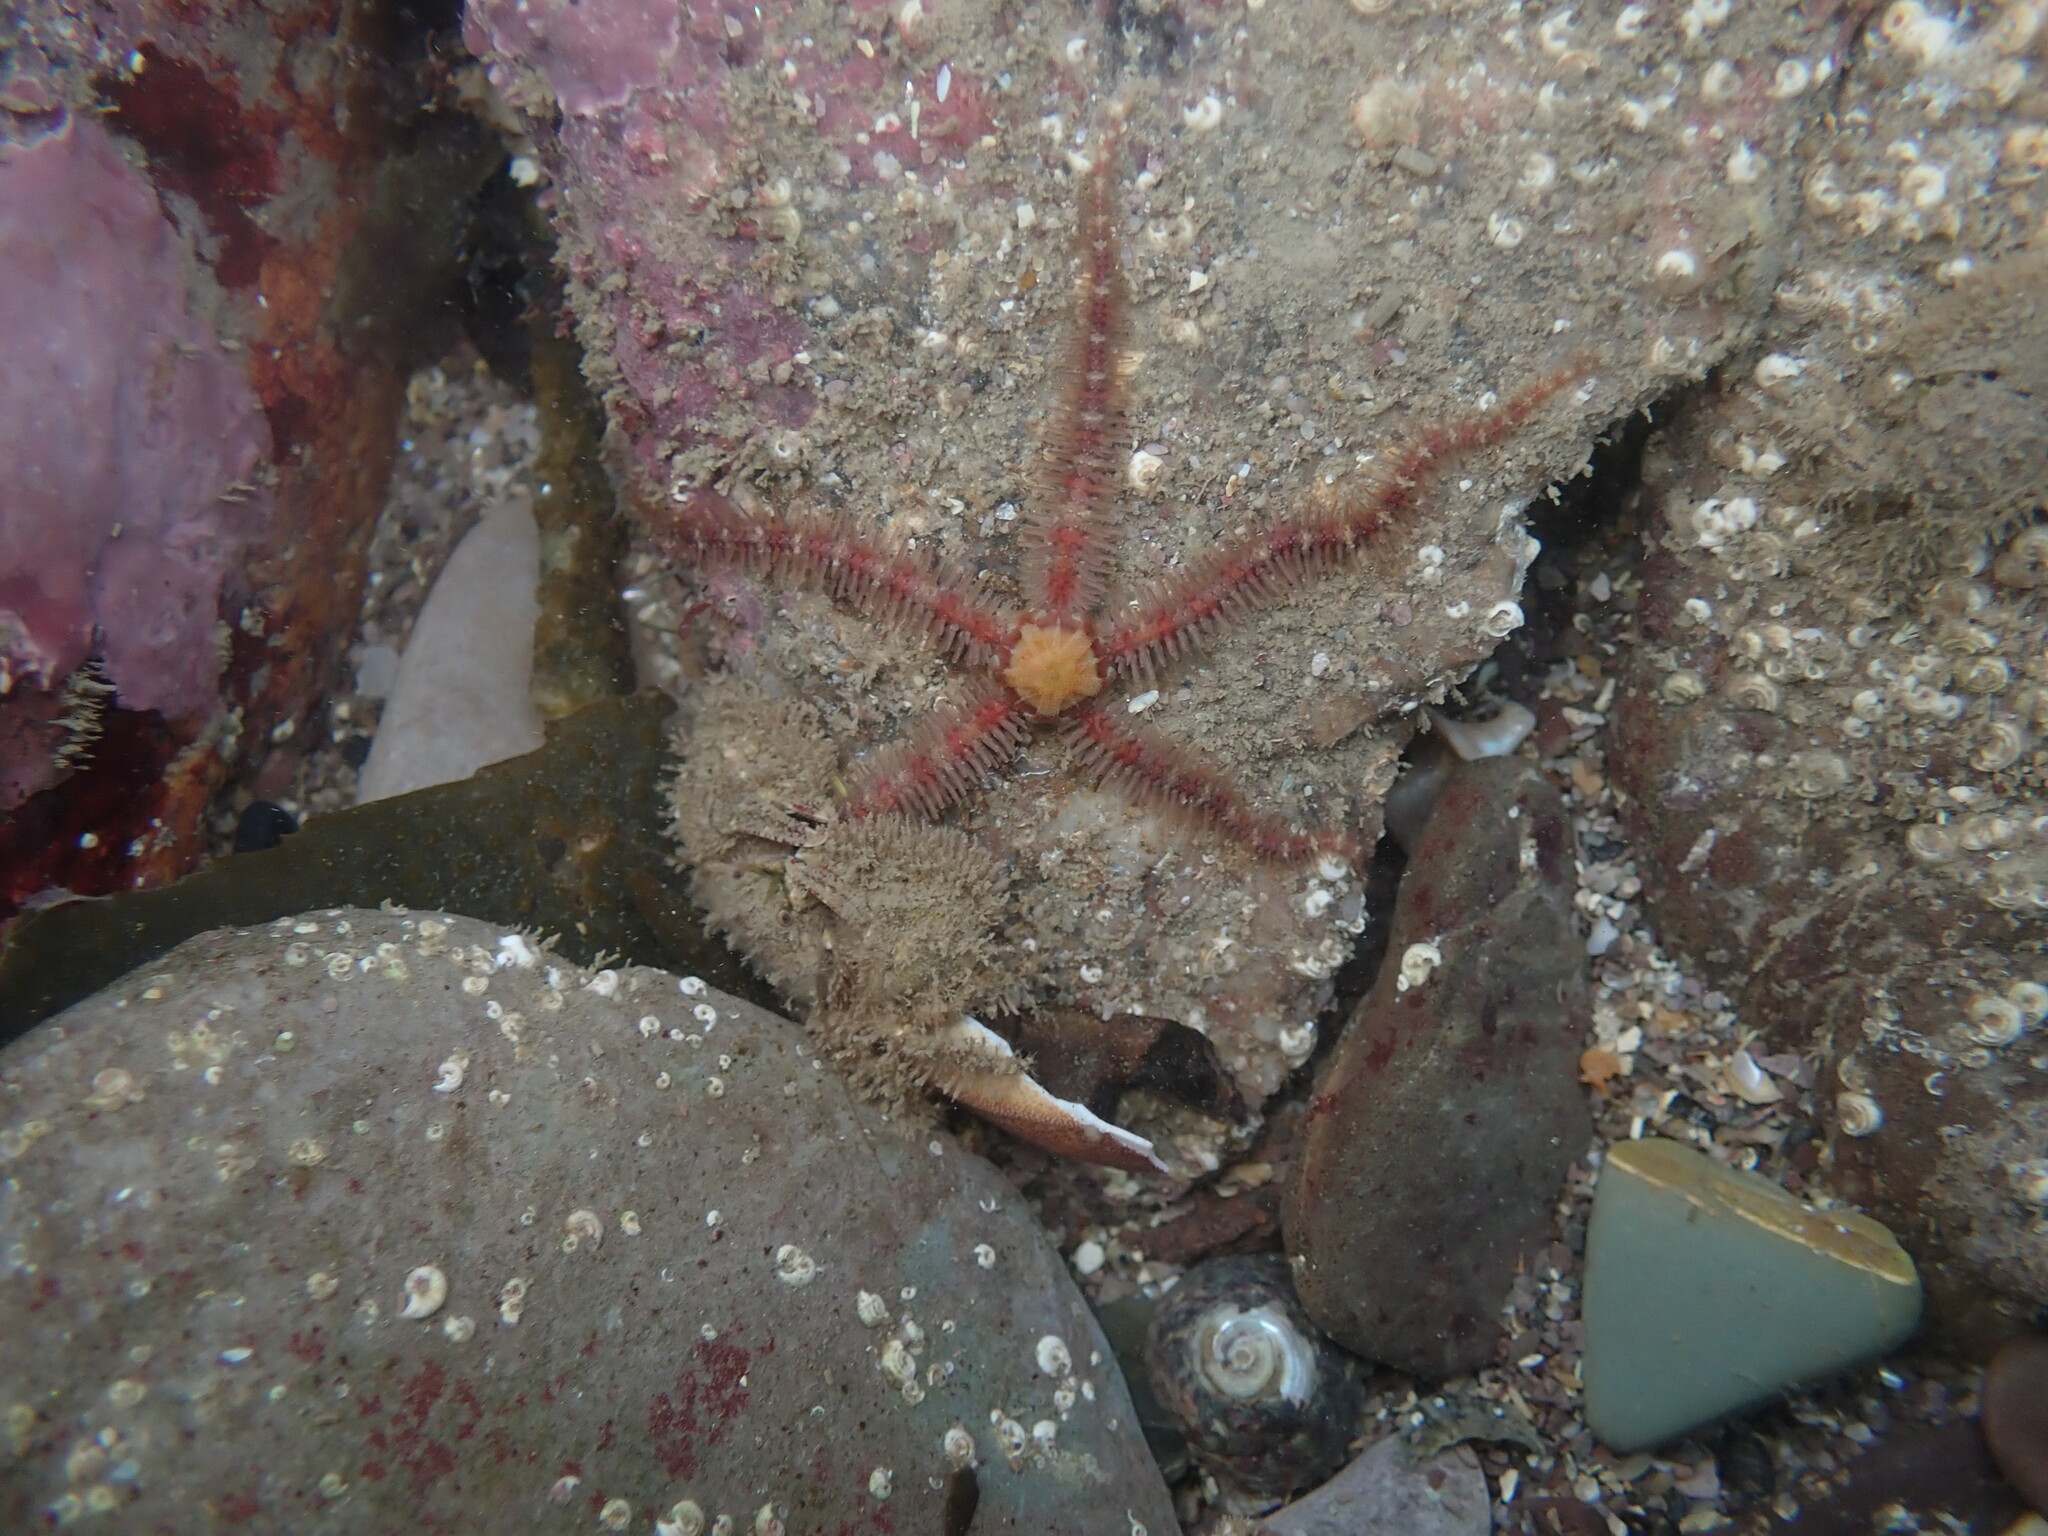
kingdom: Animalia
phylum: Echinodermata
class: Ophiuroidea
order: Amphilepidida
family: Ophiotrichidae
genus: Ophiothrix
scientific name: Ophiothrix fragilis
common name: Common brittlestar
